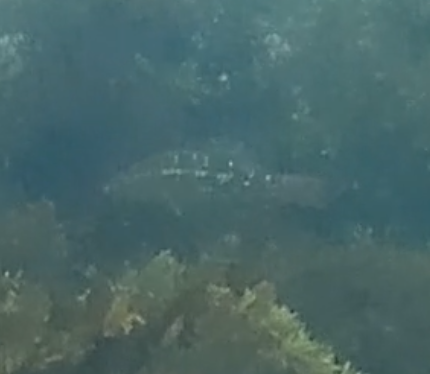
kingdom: Animalia
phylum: Chordata
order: Perciformes
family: Labridae
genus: Notolabrus
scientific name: Notolabrus gymnogenis
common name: Crimson banded wrasse
